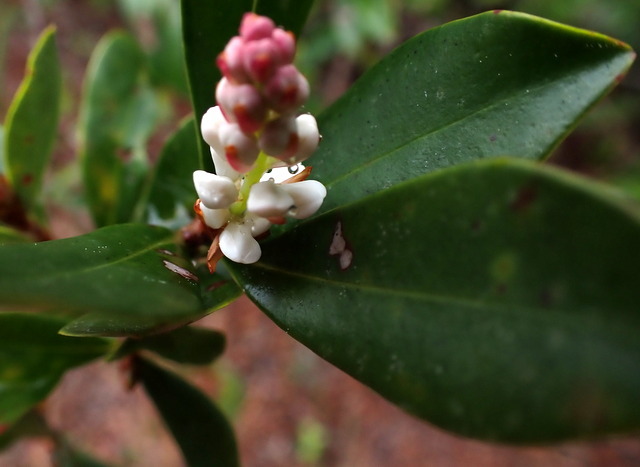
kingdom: Plantae
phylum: Tracheophyta
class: Magnoliopsida
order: Ericales
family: Cyrillaceae
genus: Cliftonia
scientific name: Cliftonia monophylla
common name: Titi
